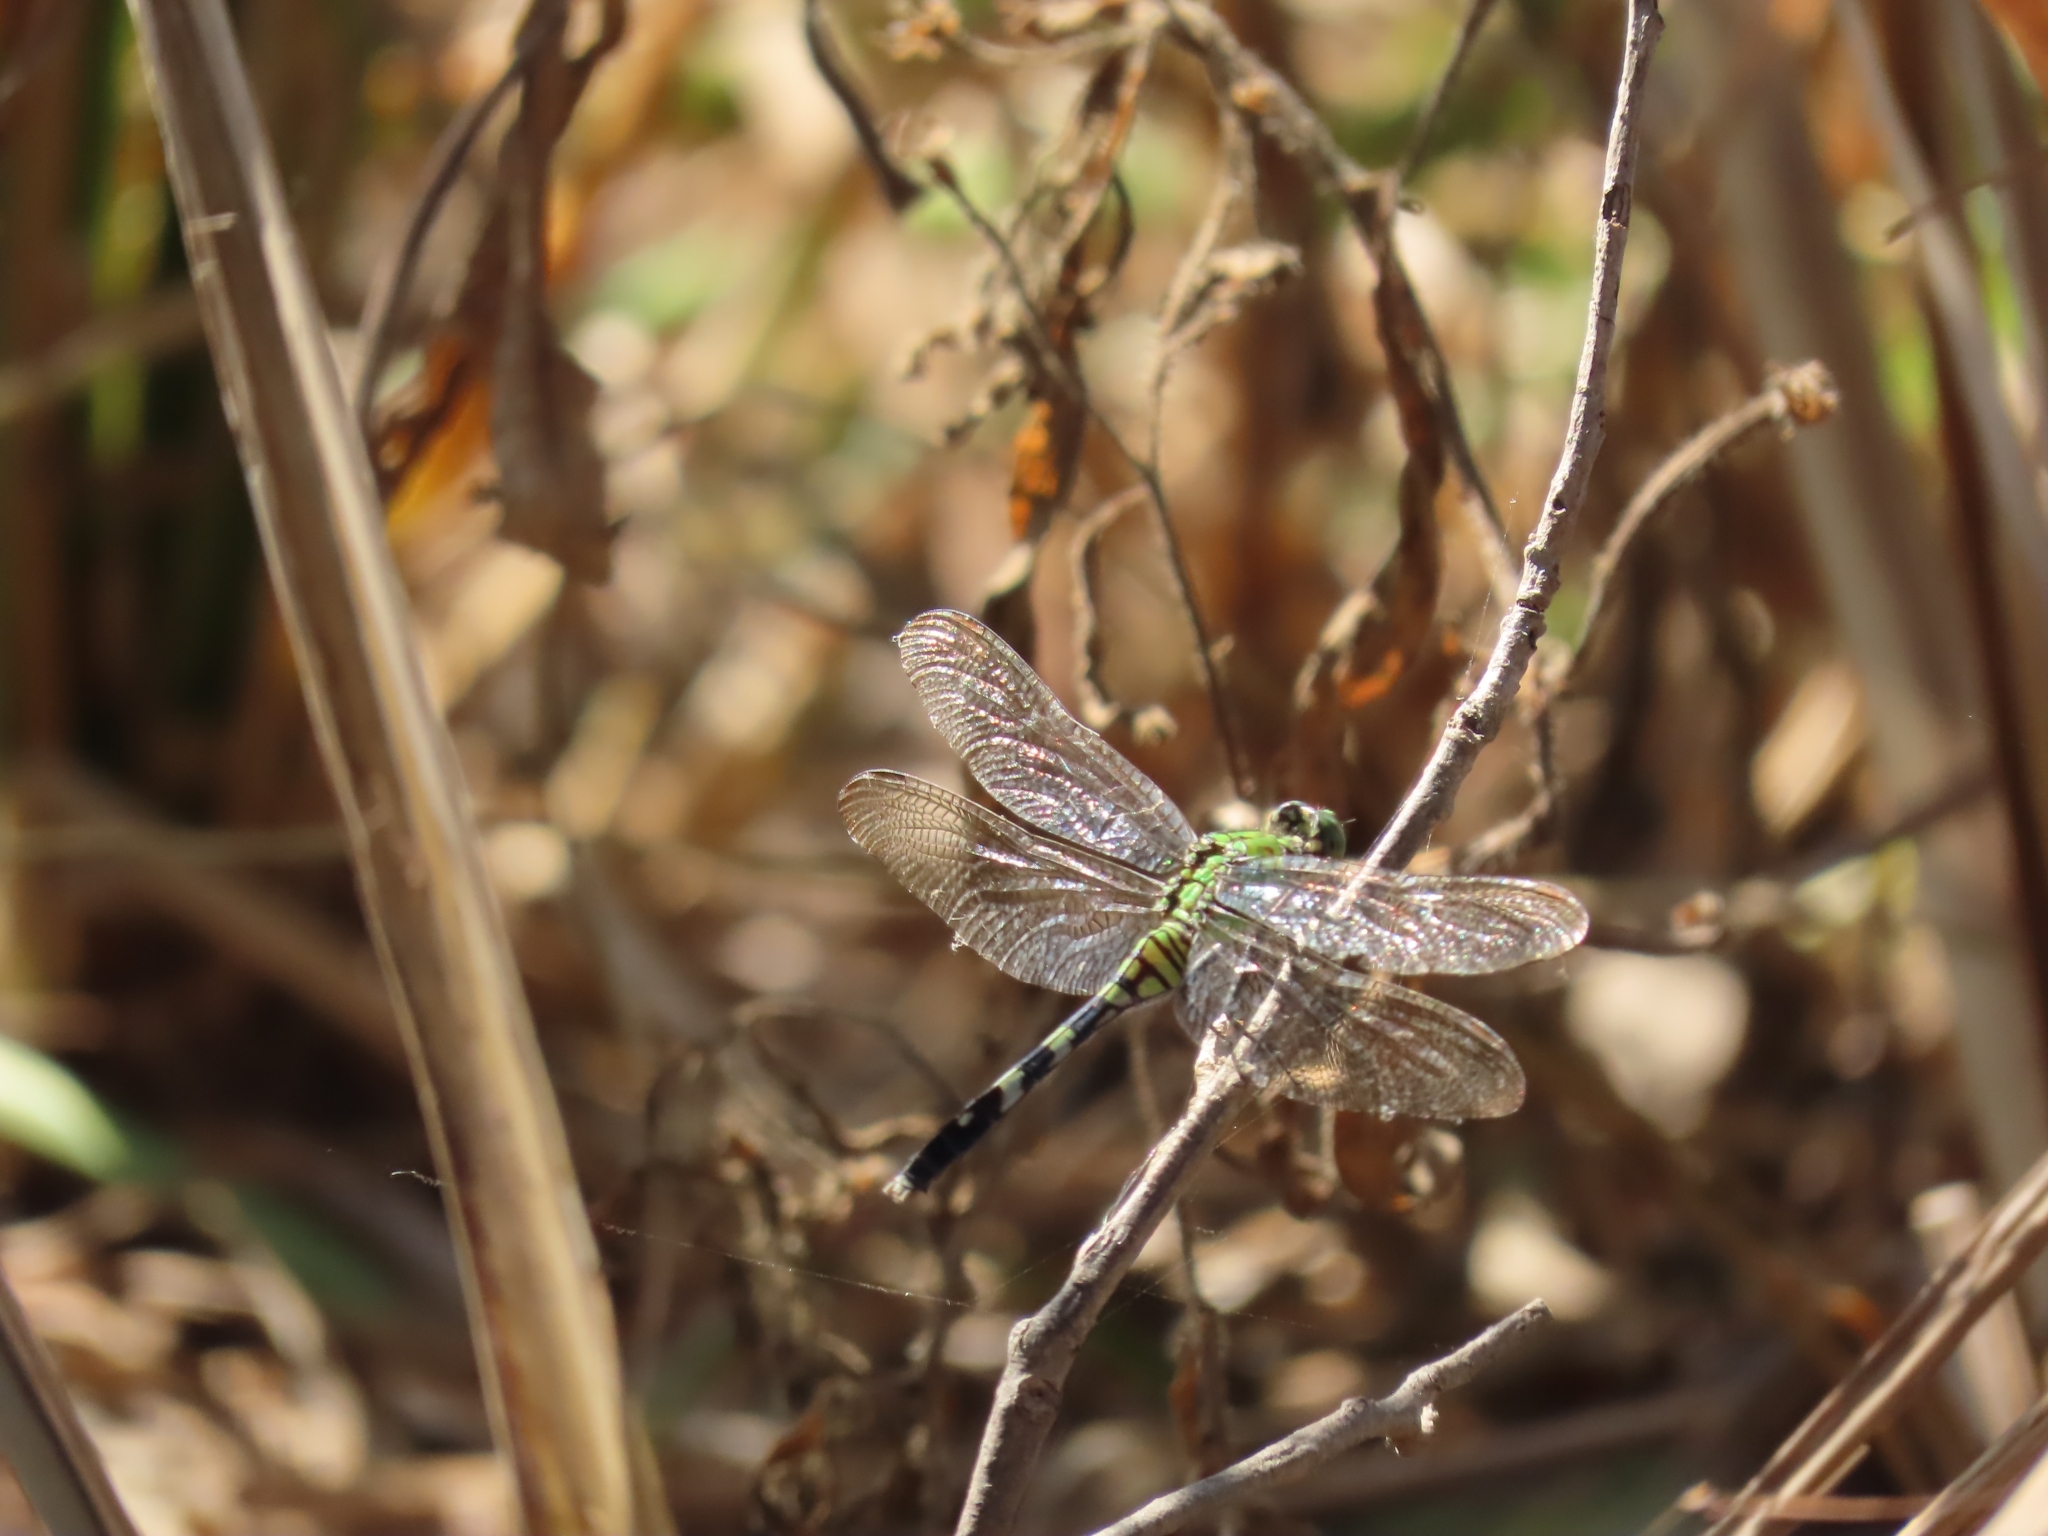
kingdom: Animalia
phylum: Arthropoda
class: Insecta
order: Odonata
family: Libellulidae
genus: Erythemis
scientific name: Erythemis simplicicollis
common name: Eastern pondhawk
